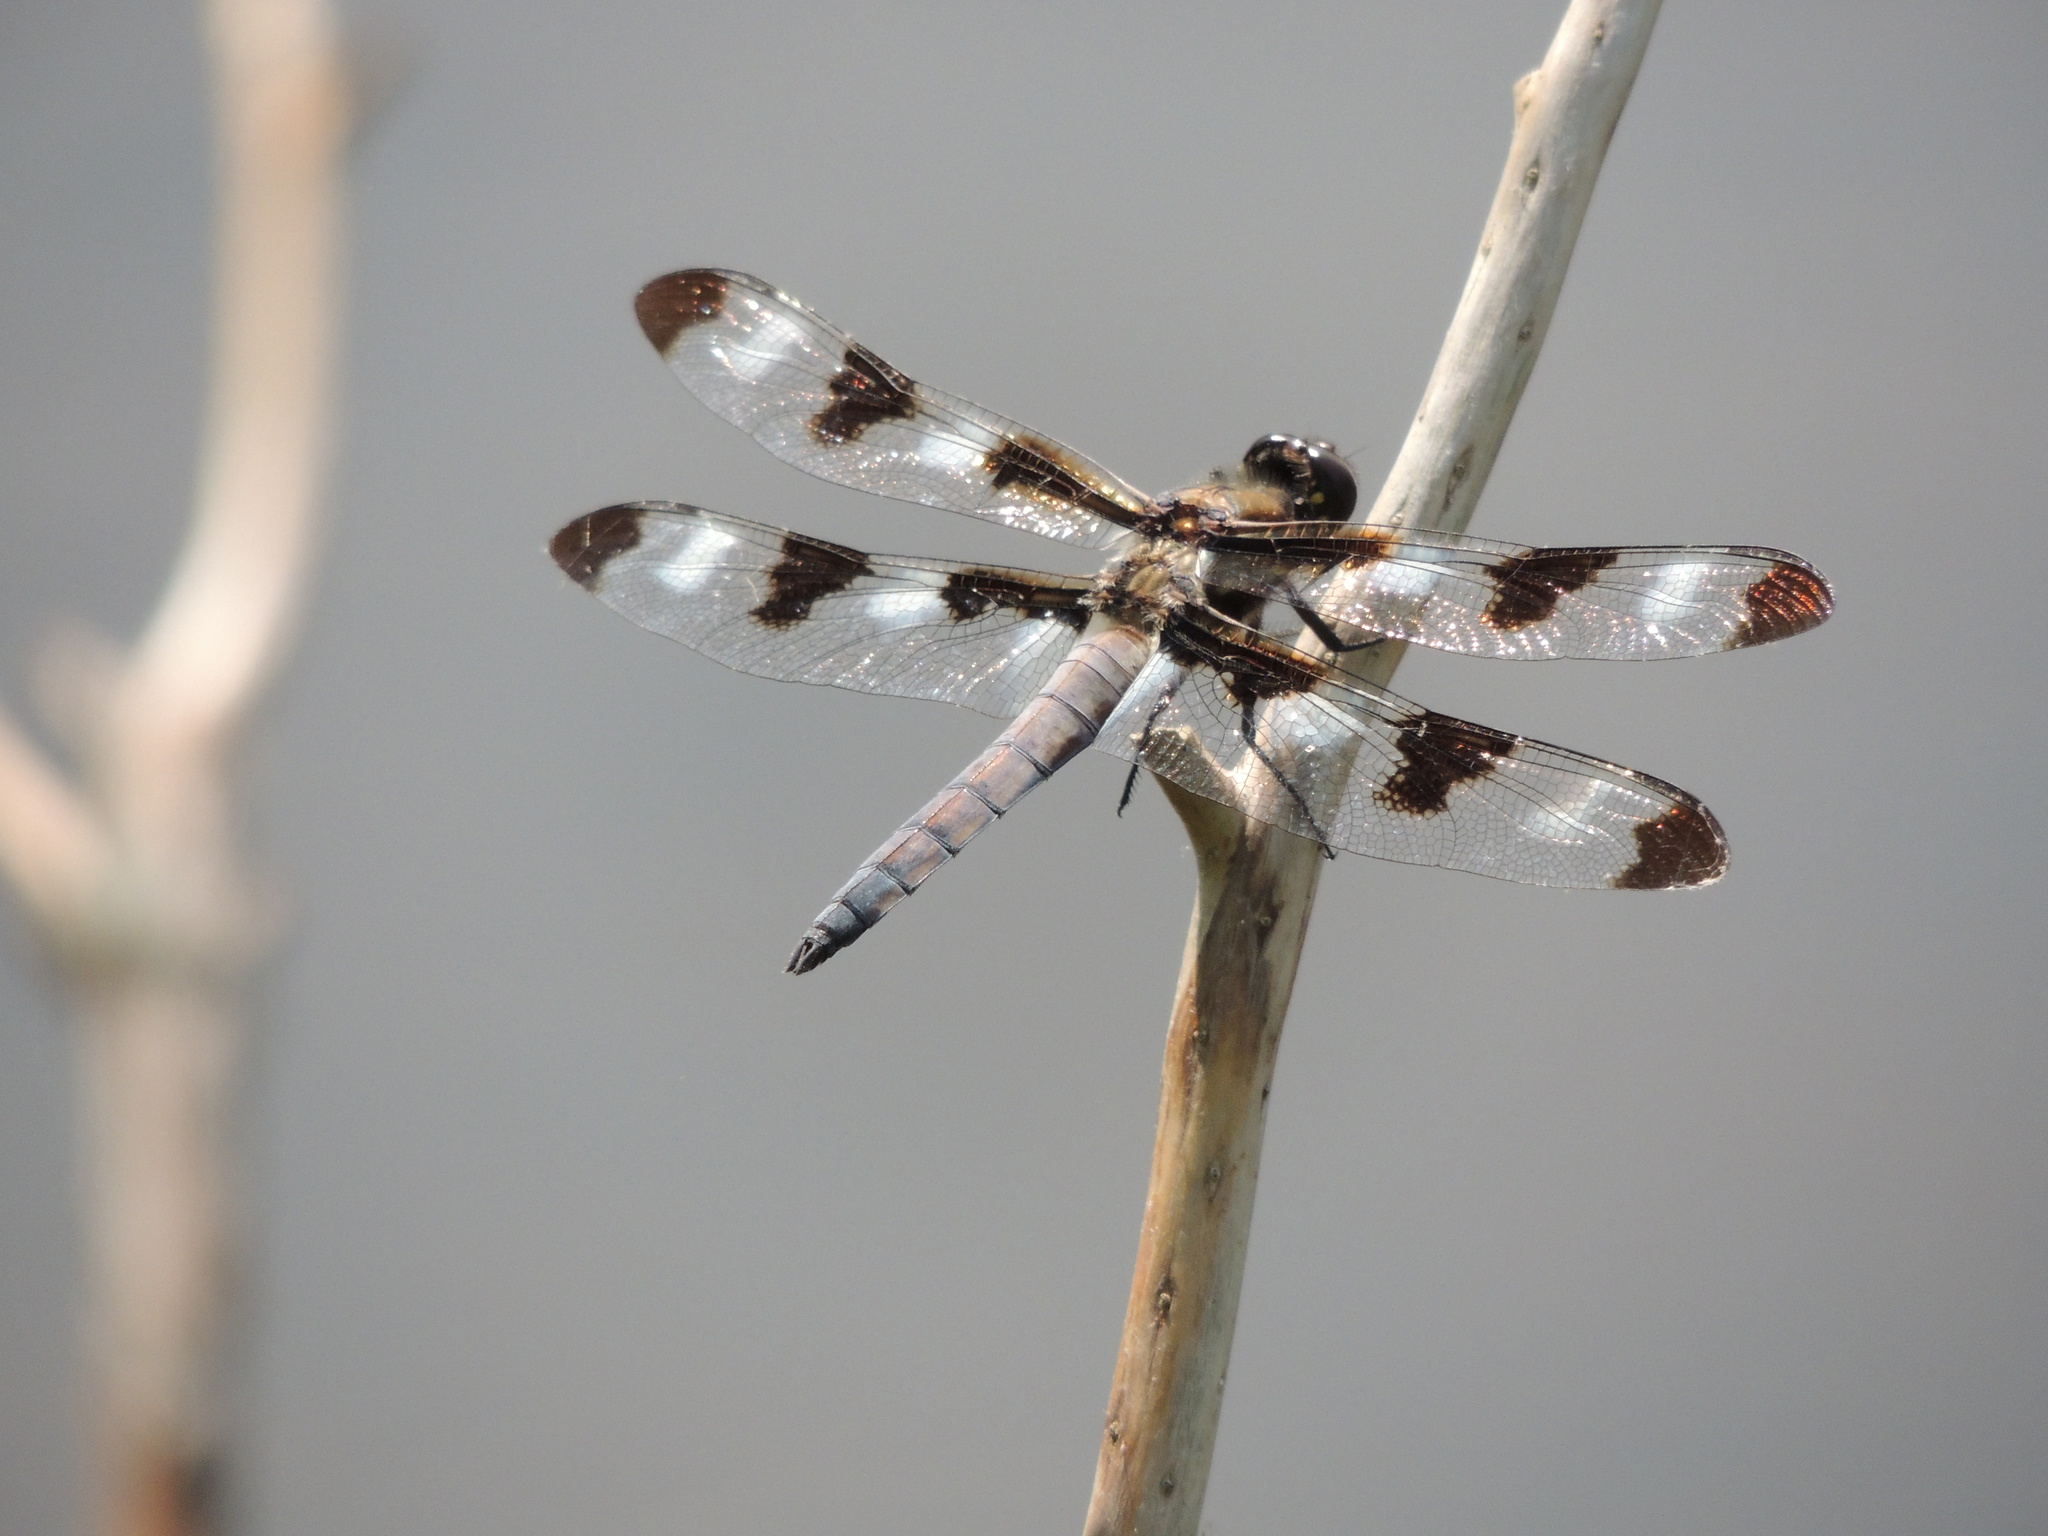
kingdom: Animalia
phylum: Arthropoda
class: Insecta
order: Odonata
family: Libellulidae
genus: Libellula
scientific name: Libellula pulchella
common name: Twelve-spotted skimmer
